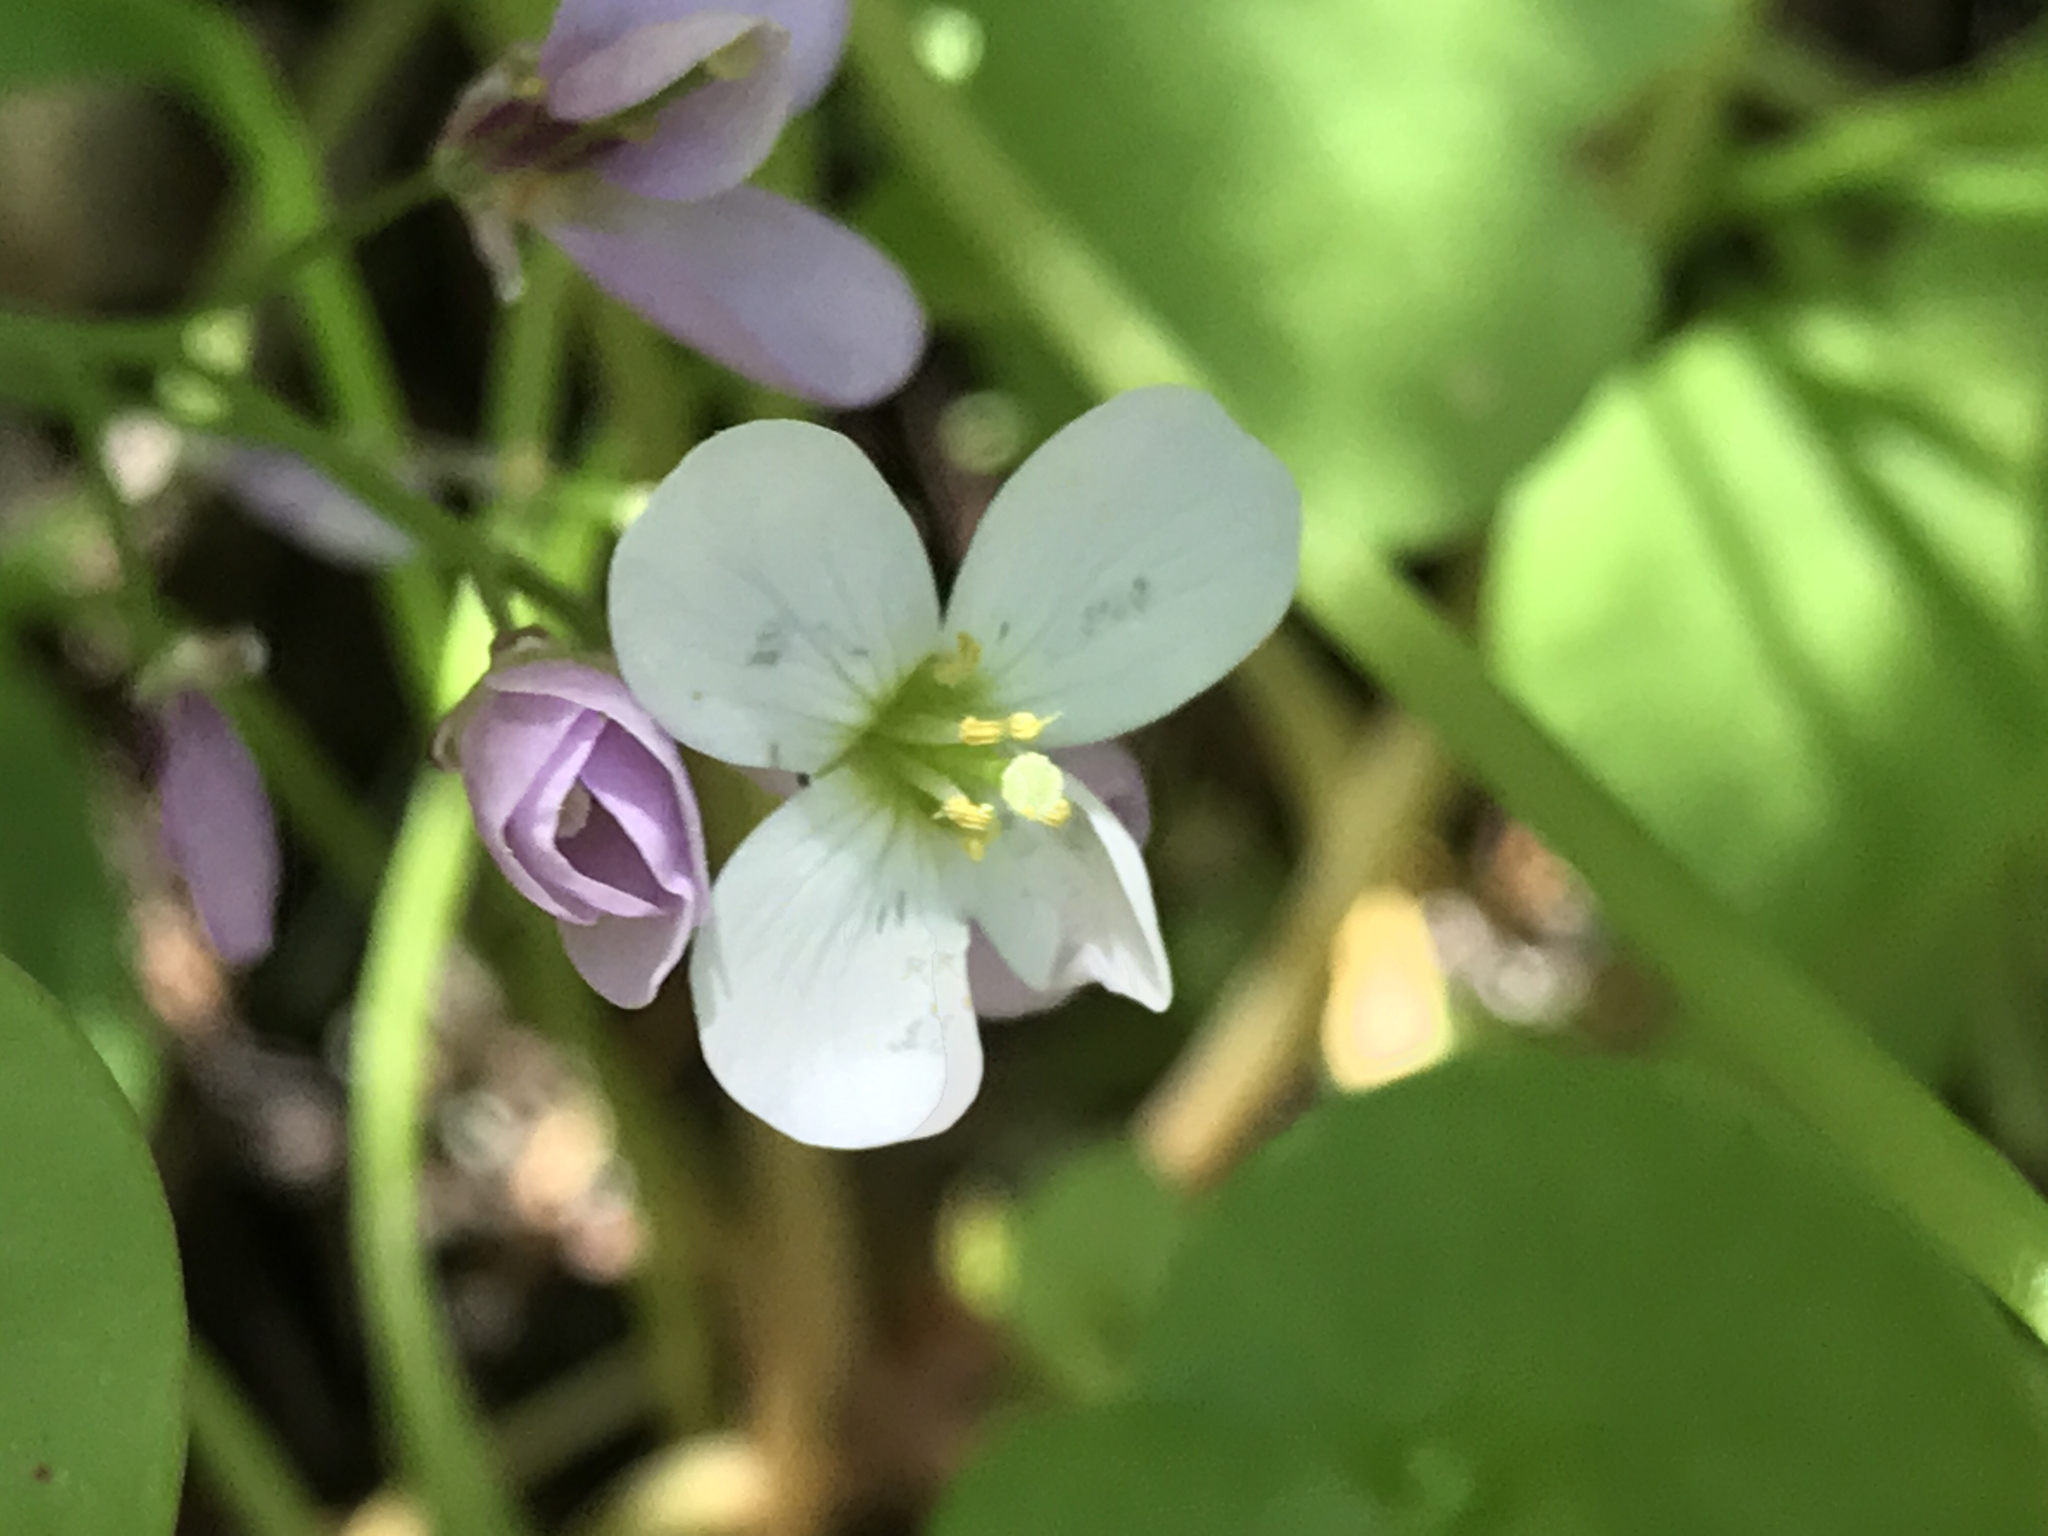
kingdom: Plantae
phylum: Tracheophyta
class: Magnoliopsida
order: Brassicales
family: Brassicaceae
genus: Cardamine
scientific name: Cardamine californica
